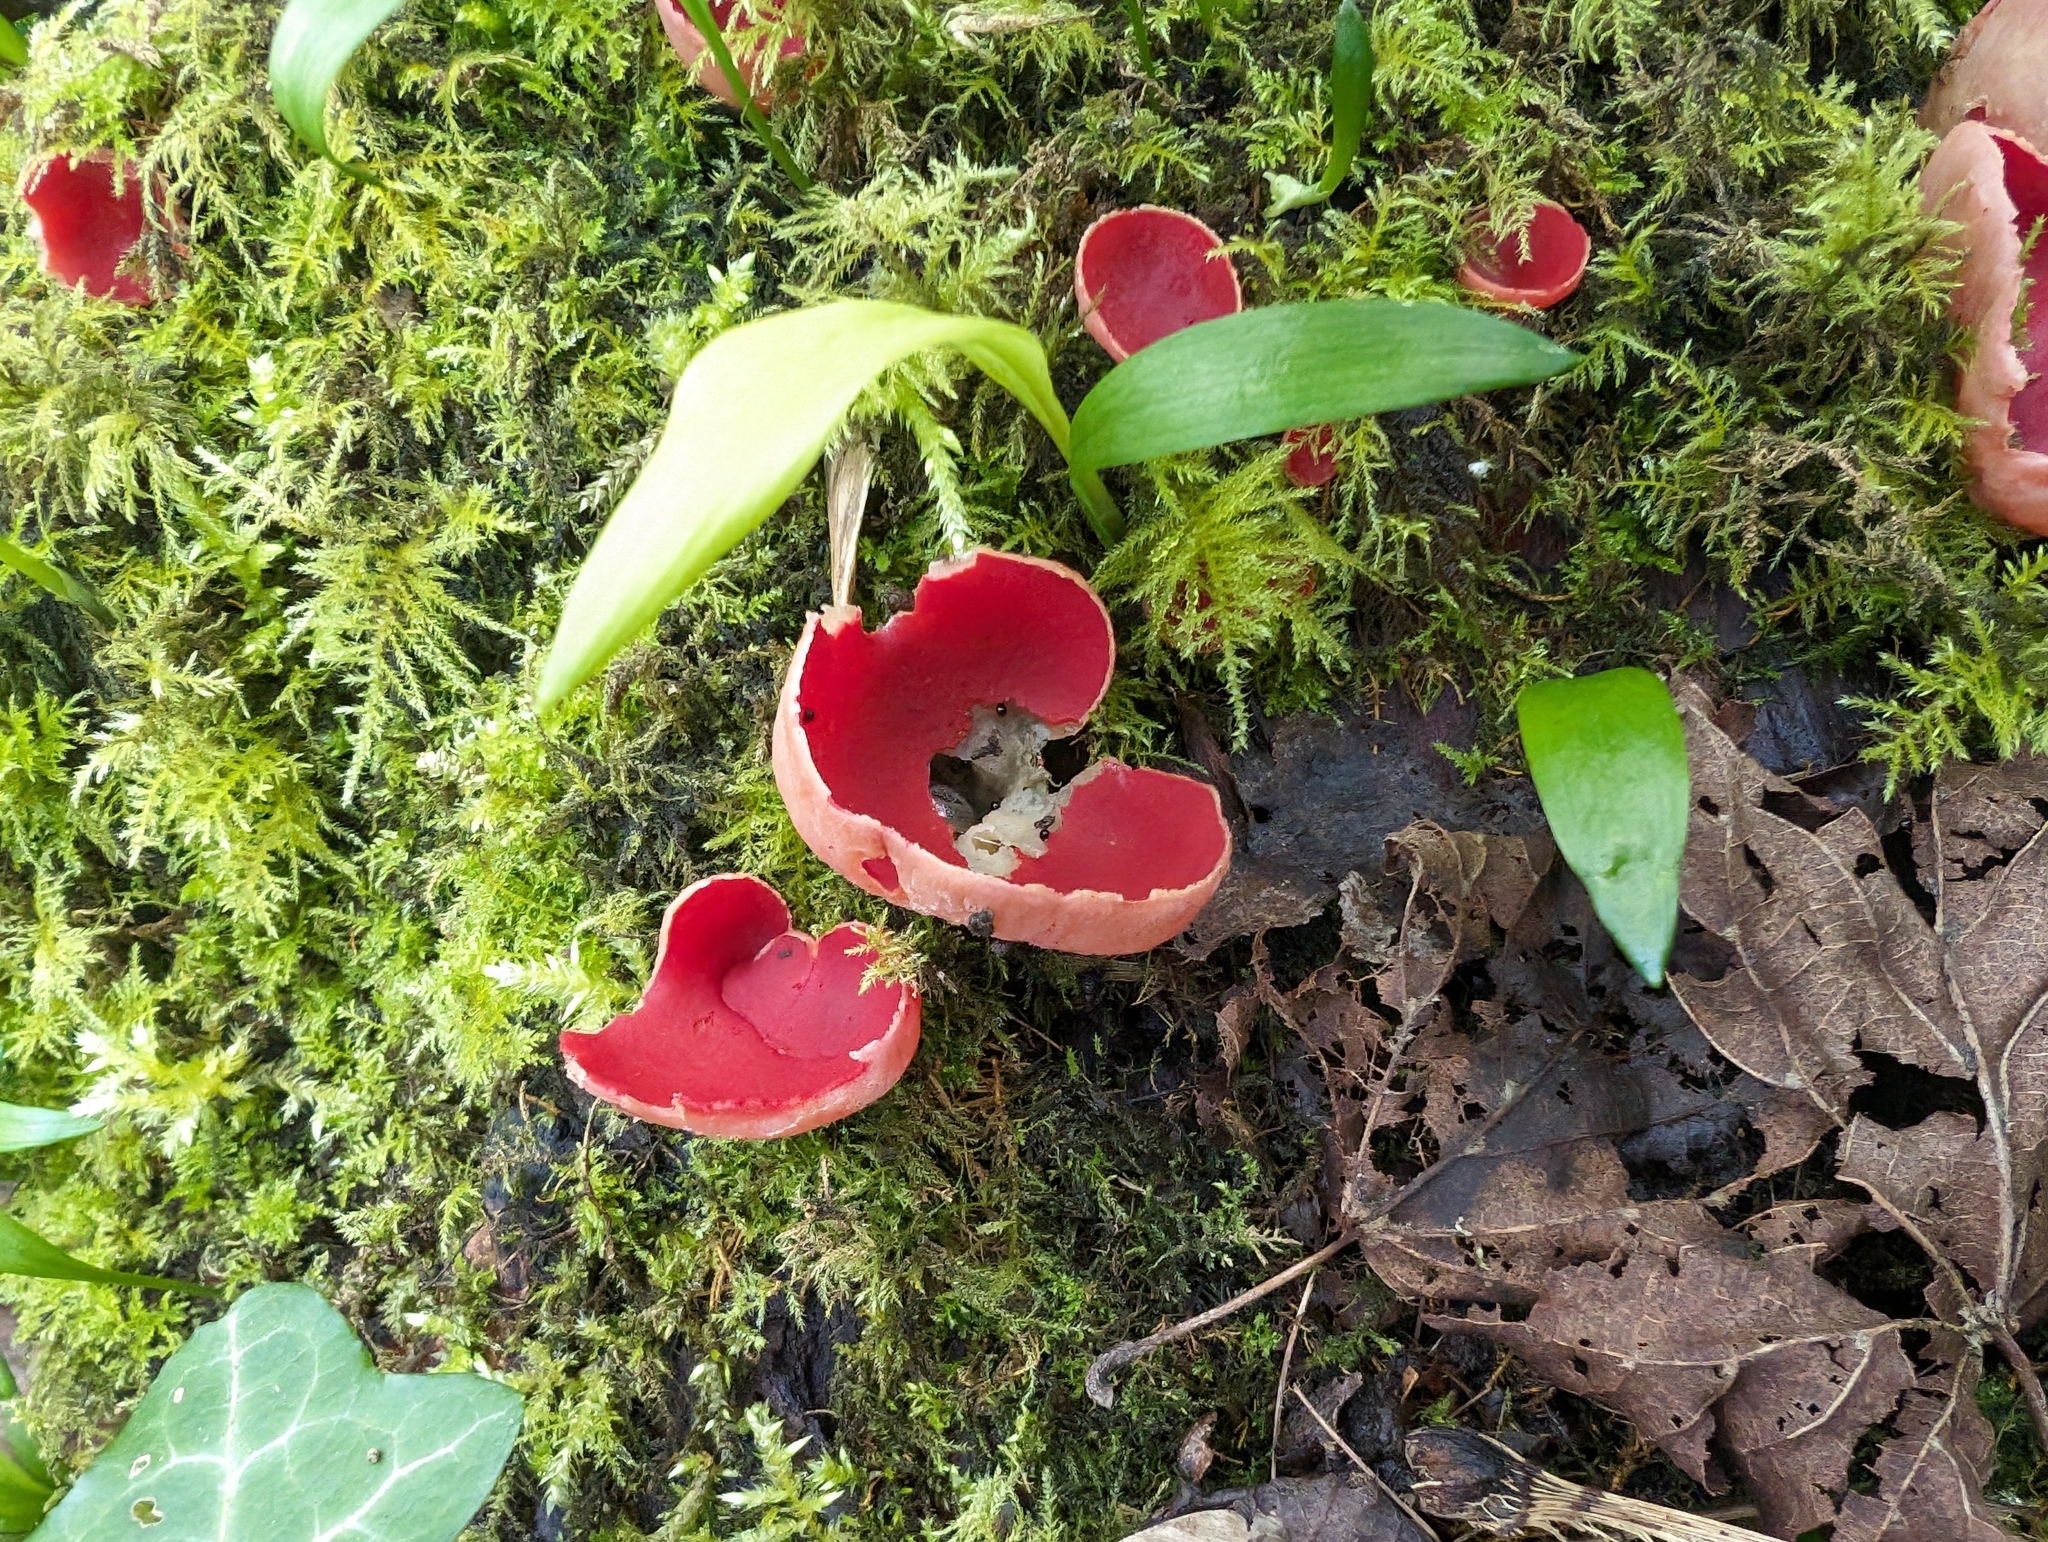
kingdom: Fungi
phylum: Ascomycota
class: Pezizomycetes
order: Pezizales
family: Sarcoscyphaceae
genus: Sarcoscypha
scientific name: Sarcoscypha
